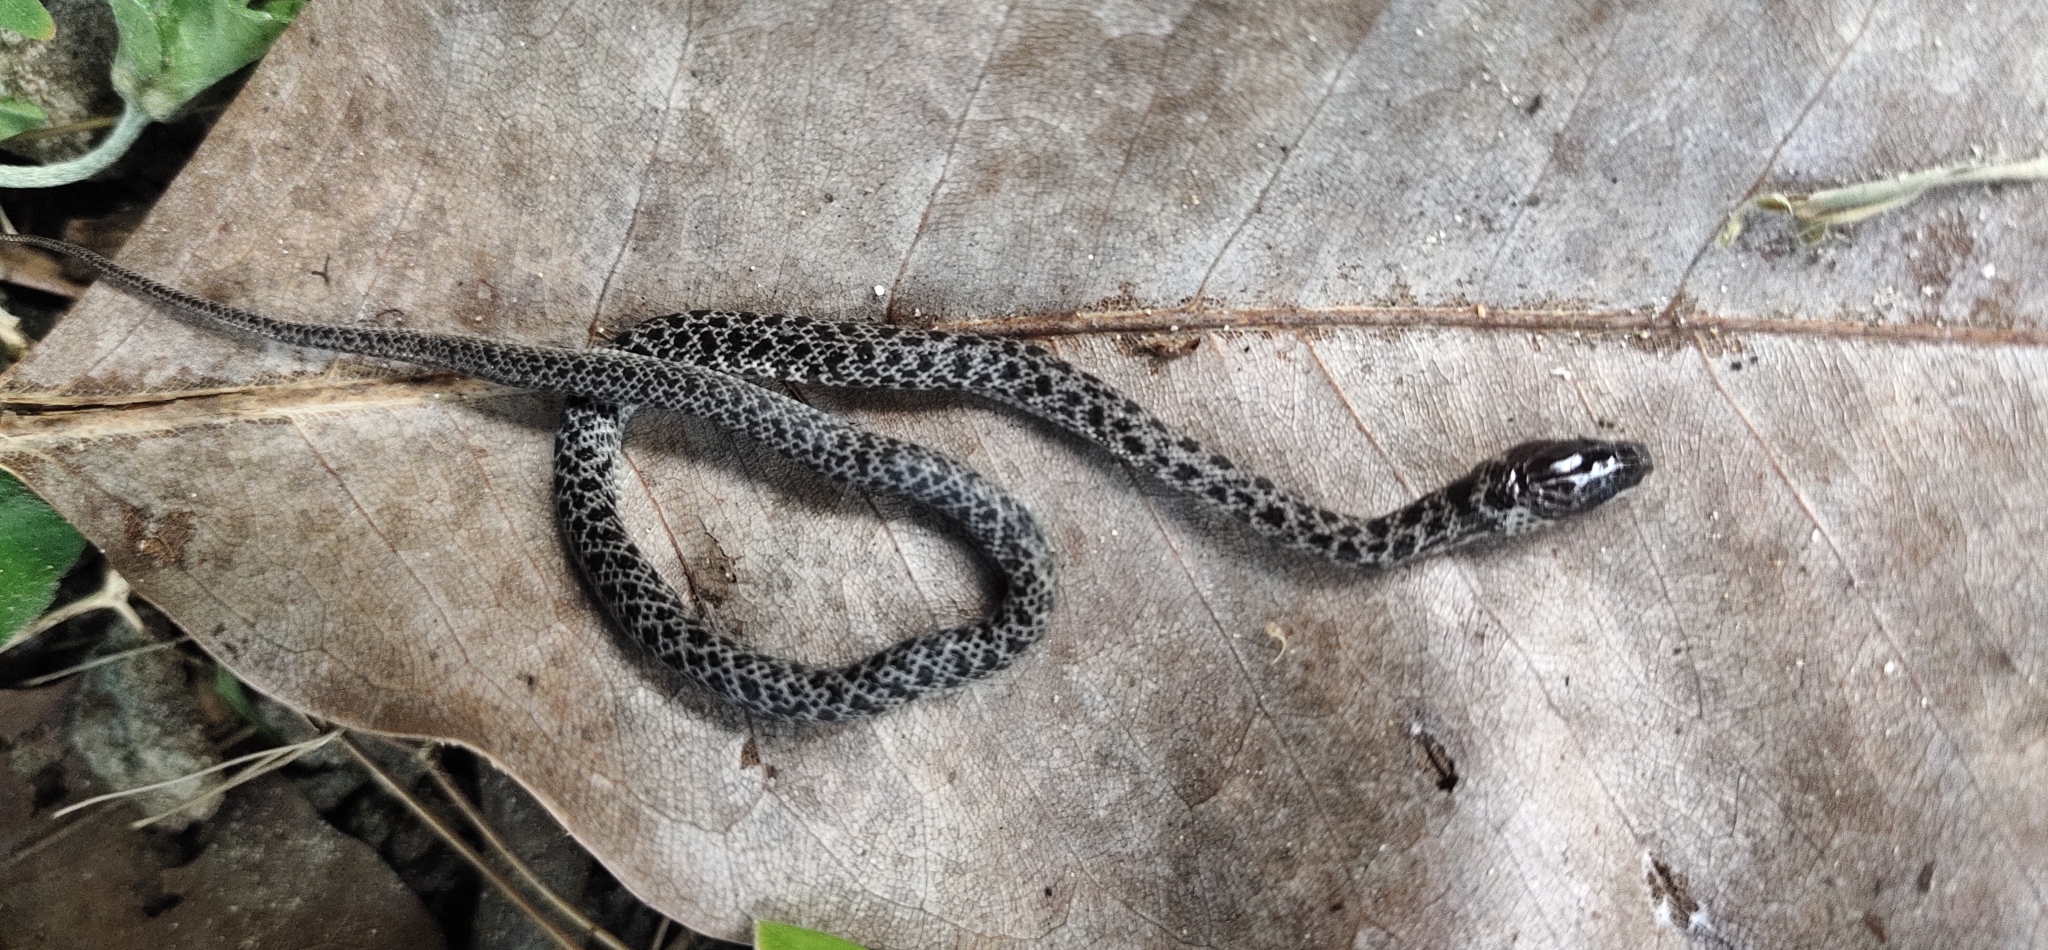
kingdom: Animalia
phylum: Chordata
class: Squamata
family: Colubridae
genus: Lycodon
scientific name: Lycodon hypsirhinoides
